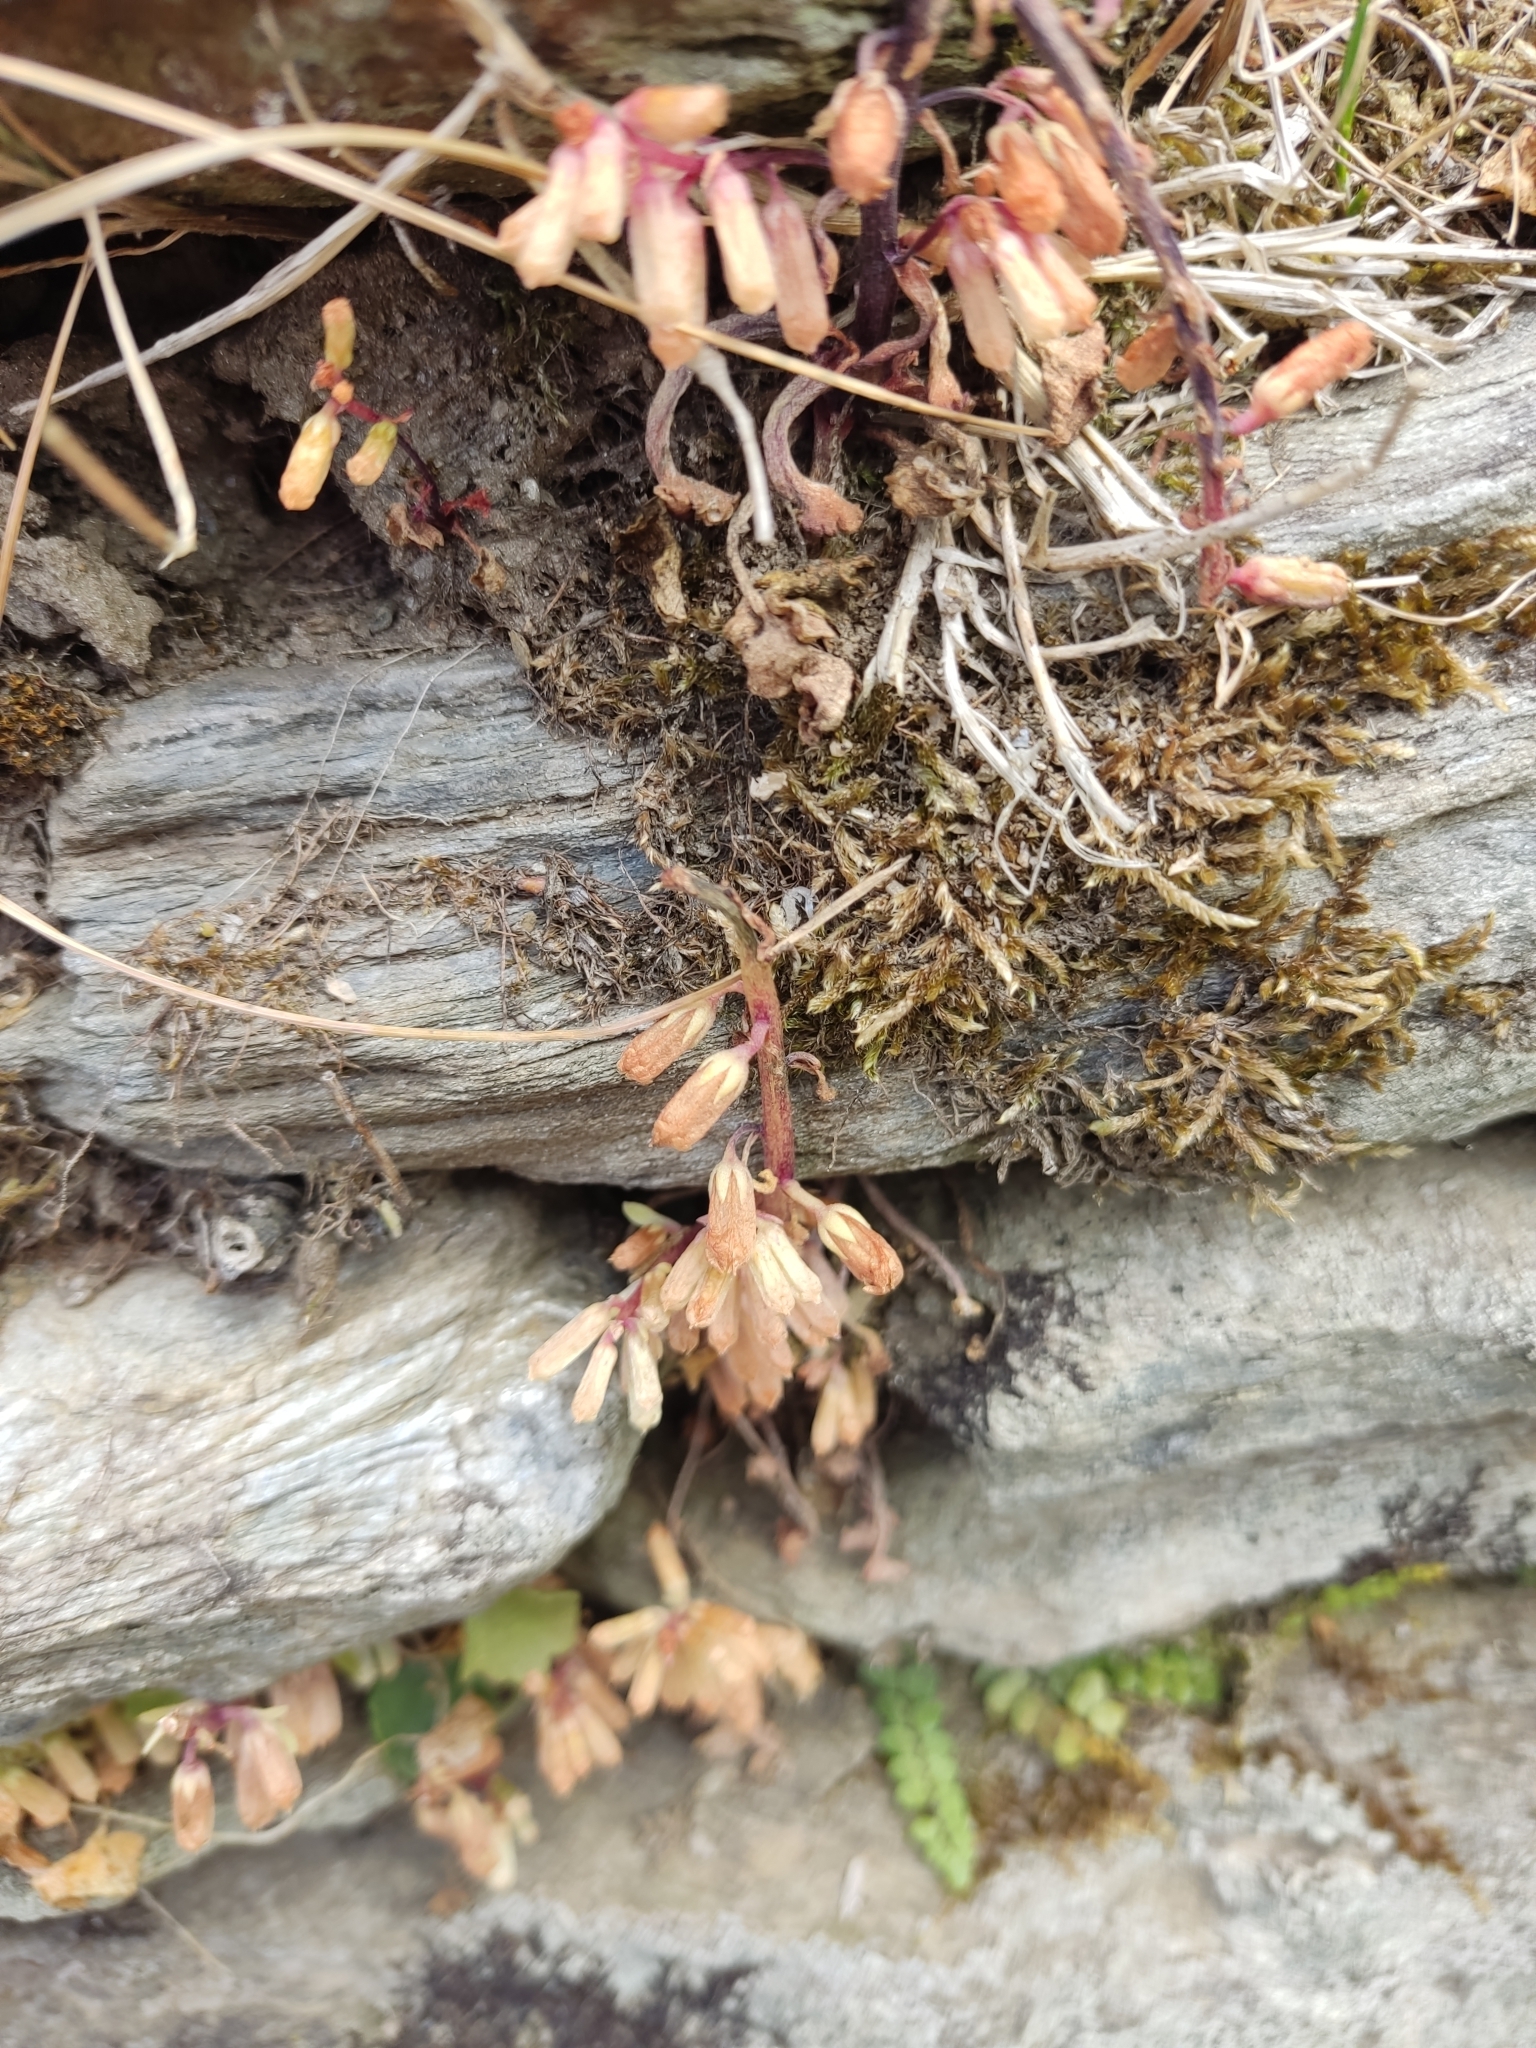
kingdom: Plantae
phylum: Tracheophyta
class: Magnoliopsida
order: Saxifragales
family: Crassulaceae
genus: Umbilicus
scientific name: Umbilicus rupestris
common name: Navelwort
